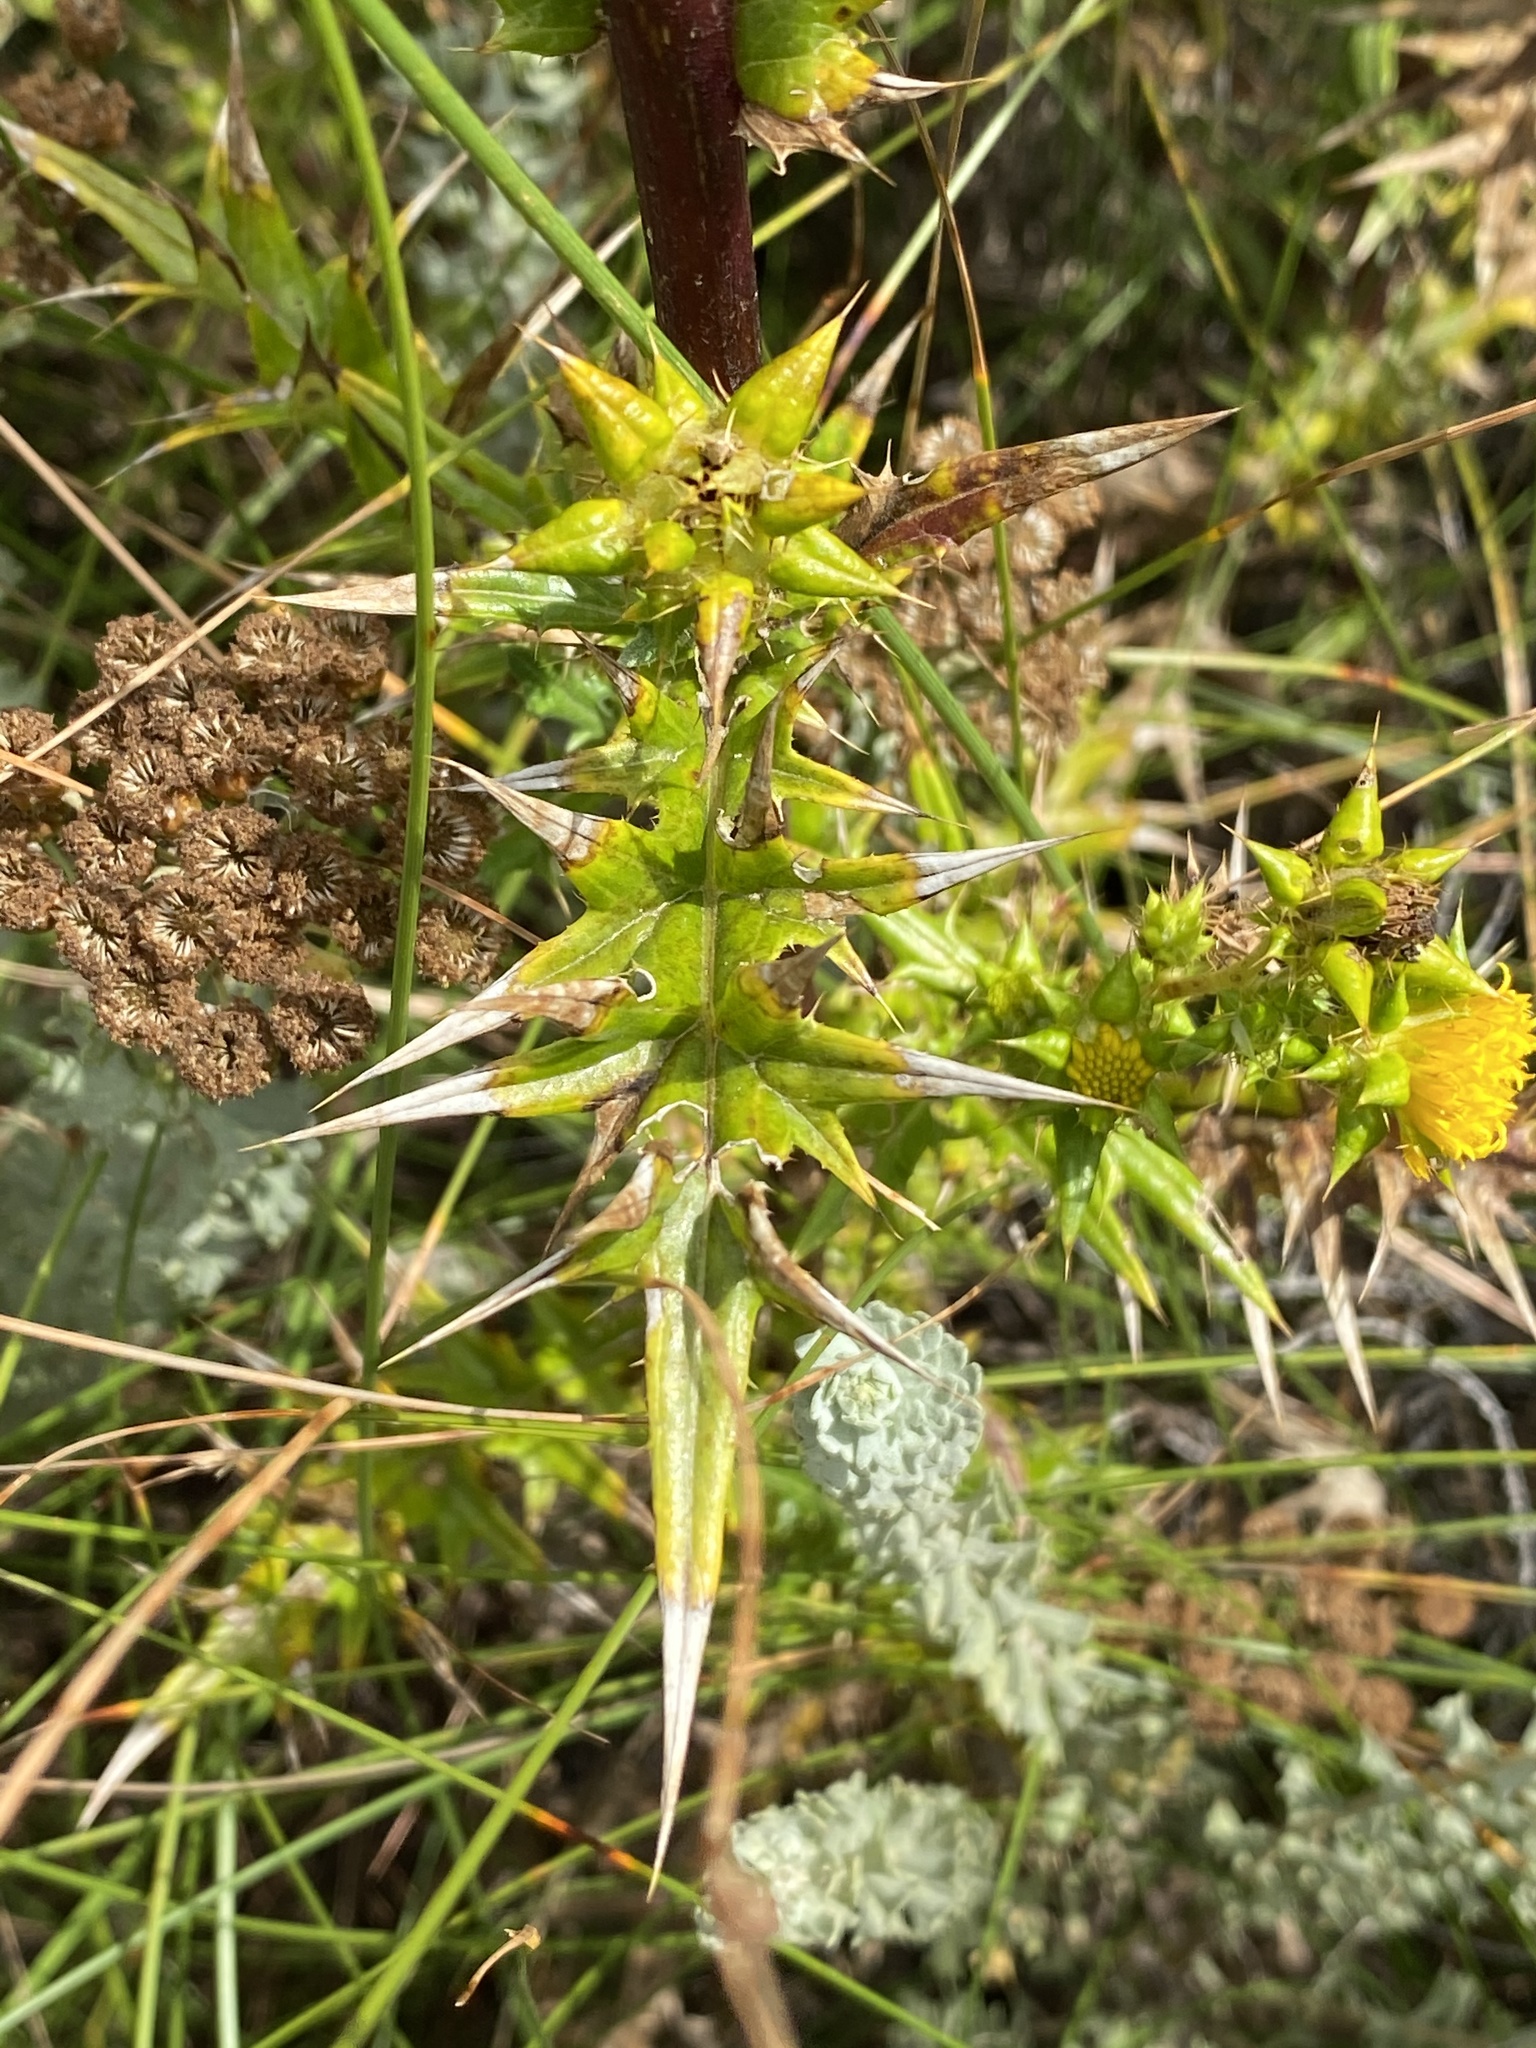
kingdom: Plantae
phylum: Tracheophyta
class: Magnoliopsida
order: Asterales
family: Asteraceae
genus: Berkheya
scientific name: Berkheya rigida
